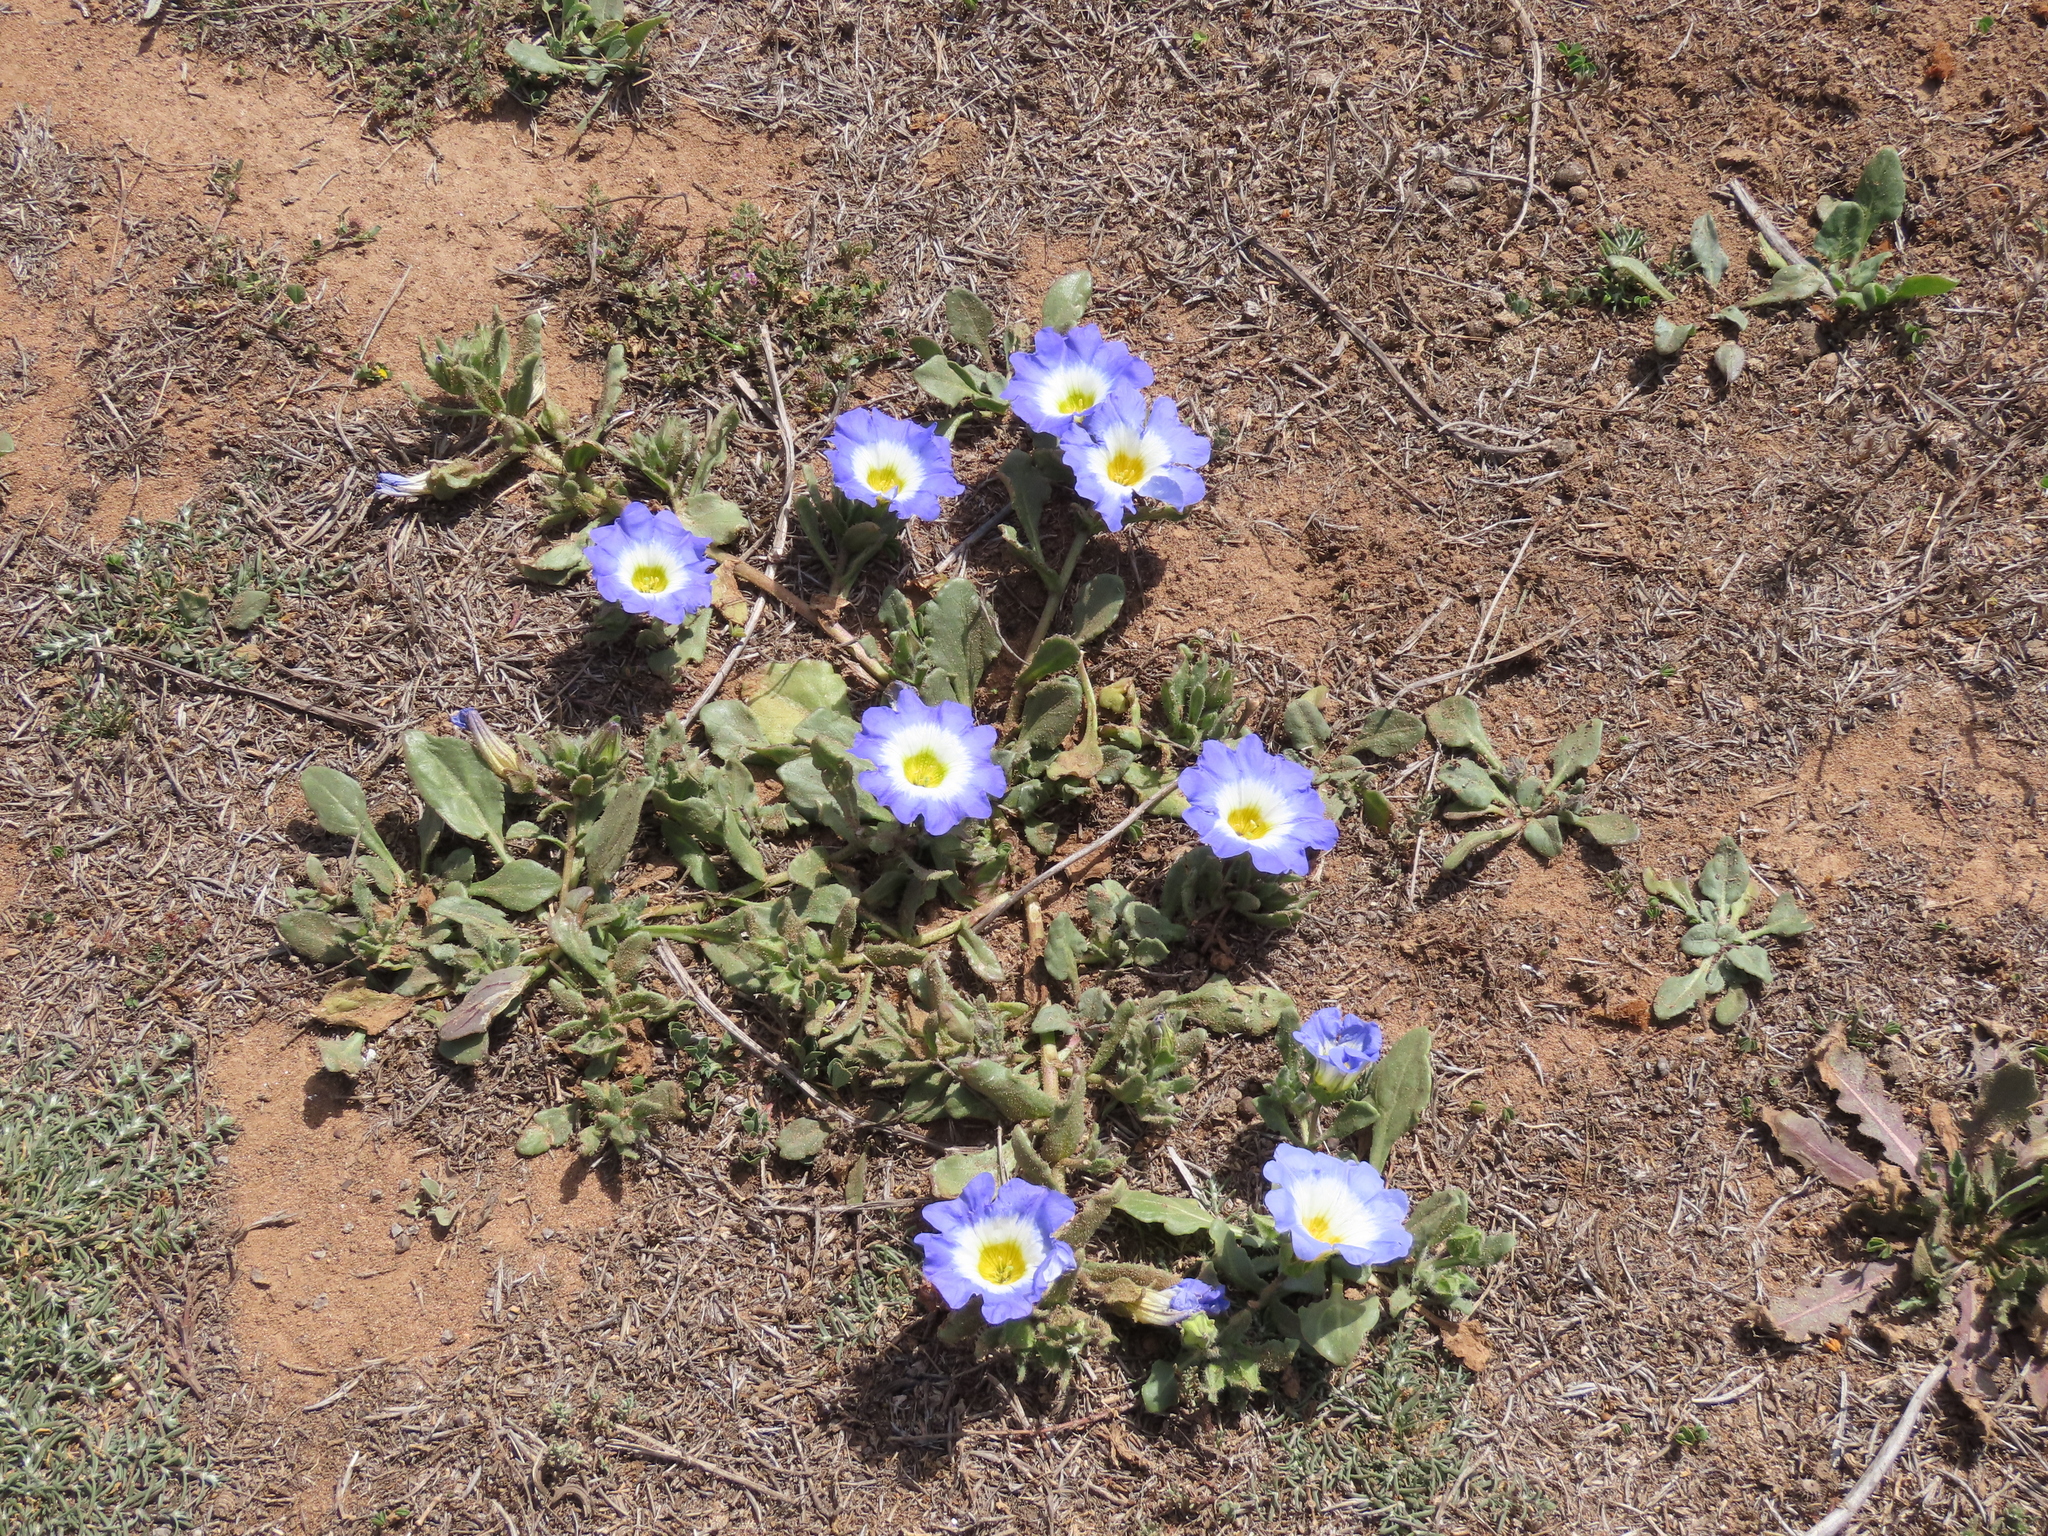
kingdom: Plantae
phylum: Tracheophyta
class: Magnoliopsida
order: Solanales
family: Solanaceae
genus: Nolana
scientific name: Nolana acuminata
